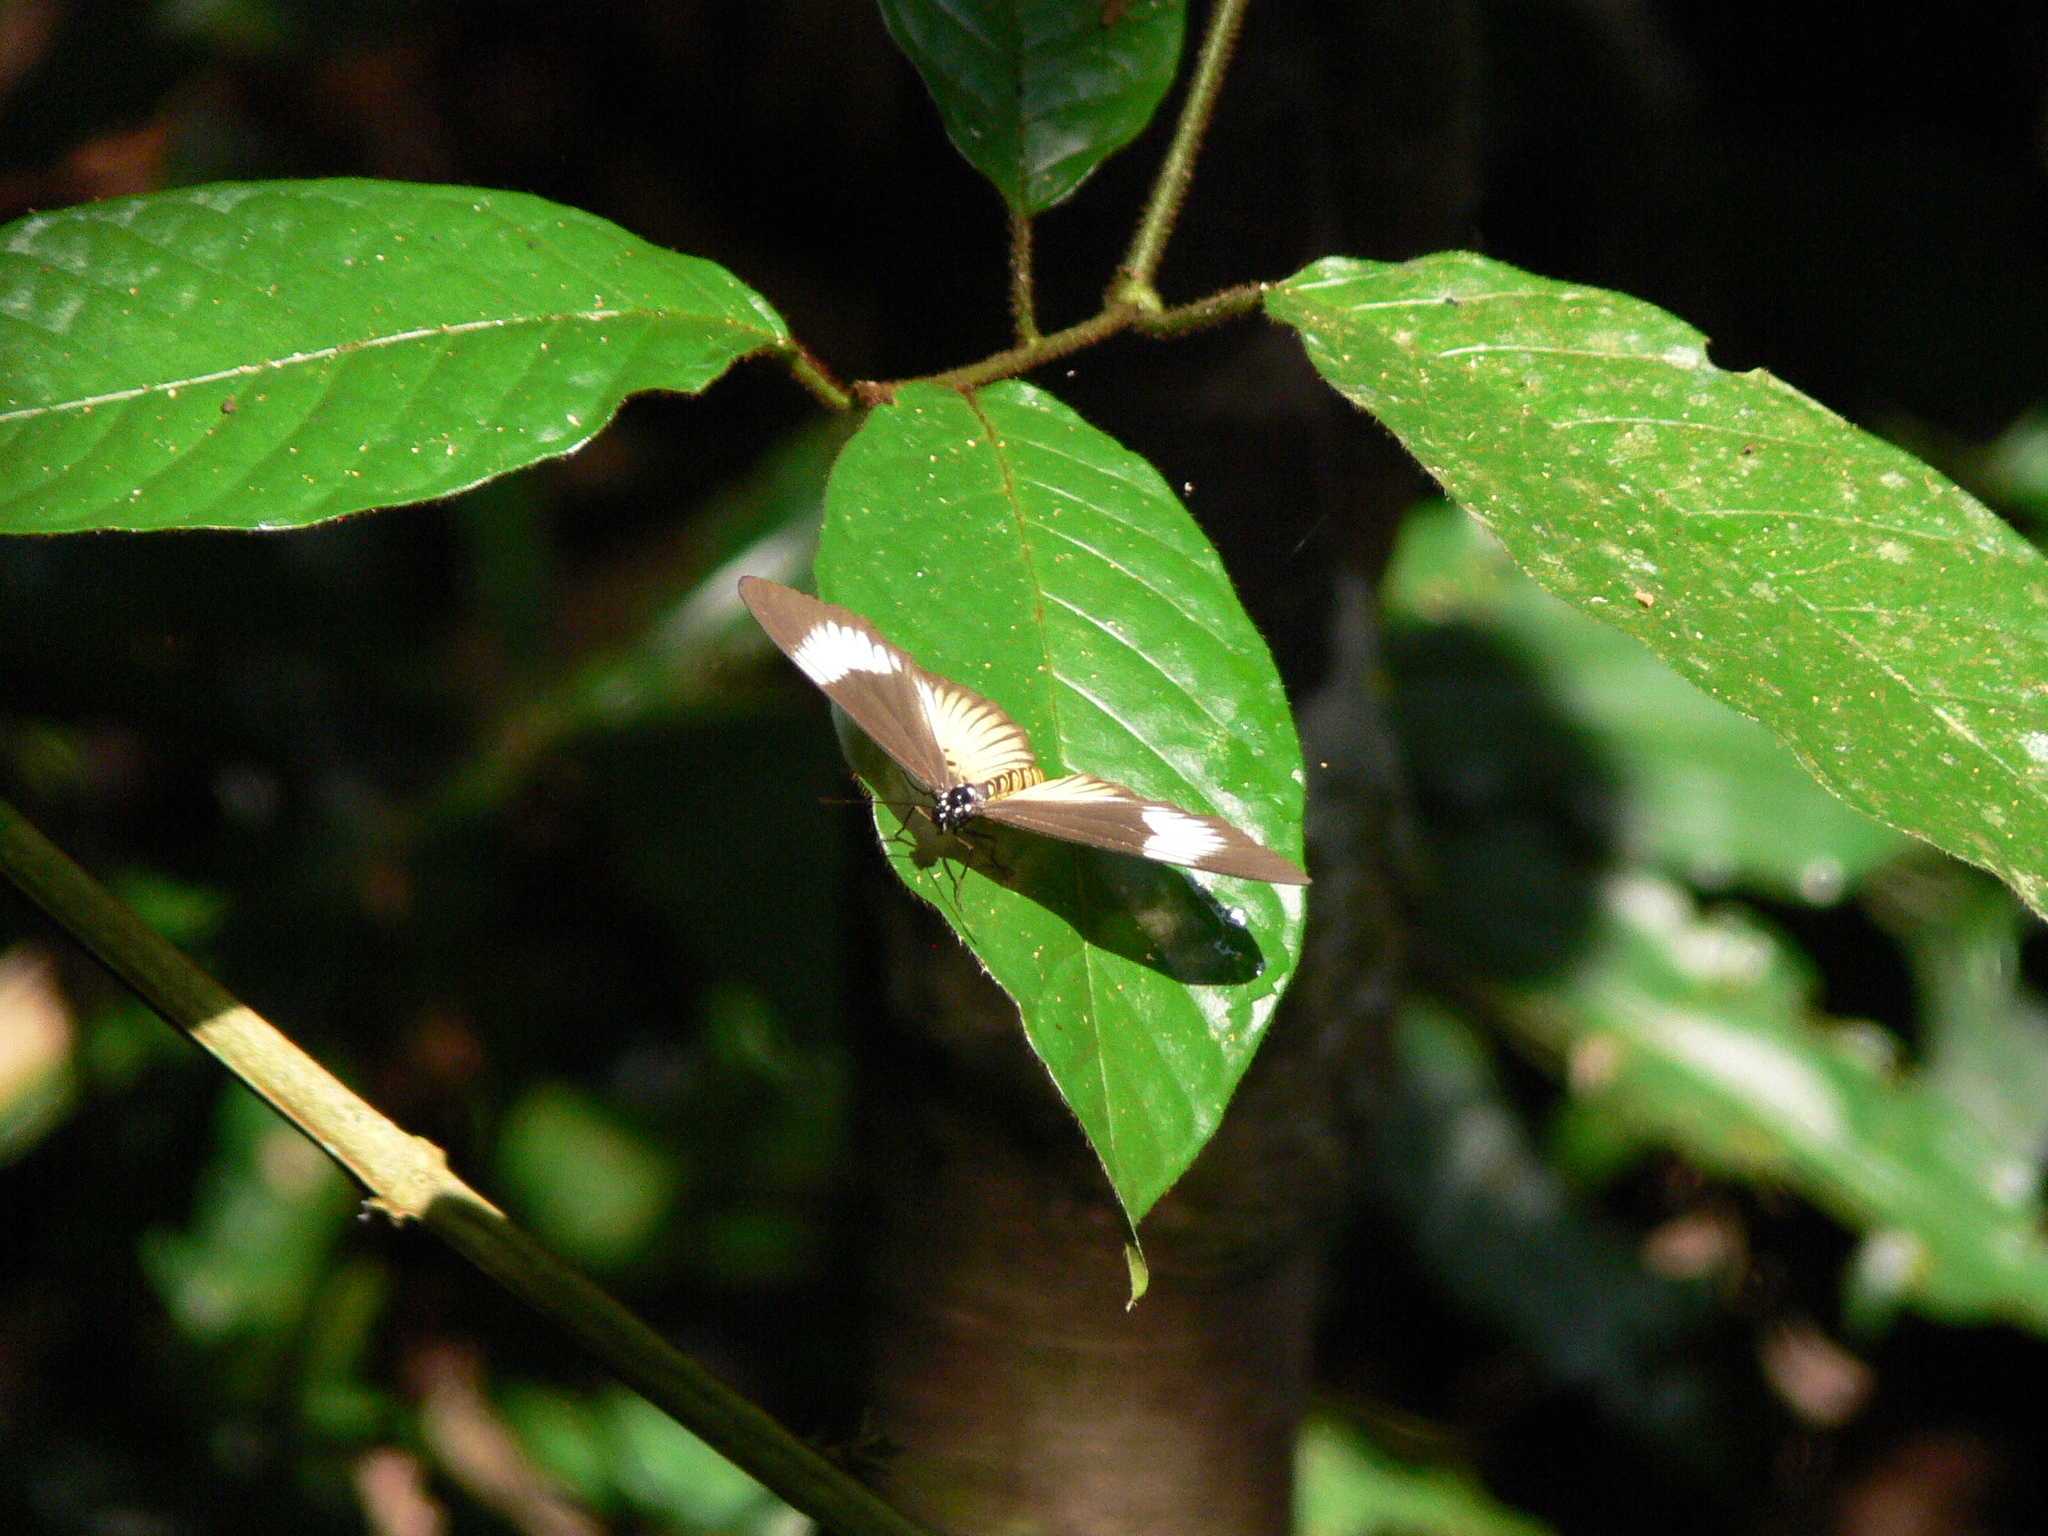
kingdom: Animalia
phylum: Arthropoda
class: Insecta
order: Lepidoptera
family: Nymphalidae
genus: Acraea
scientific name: Acraea
